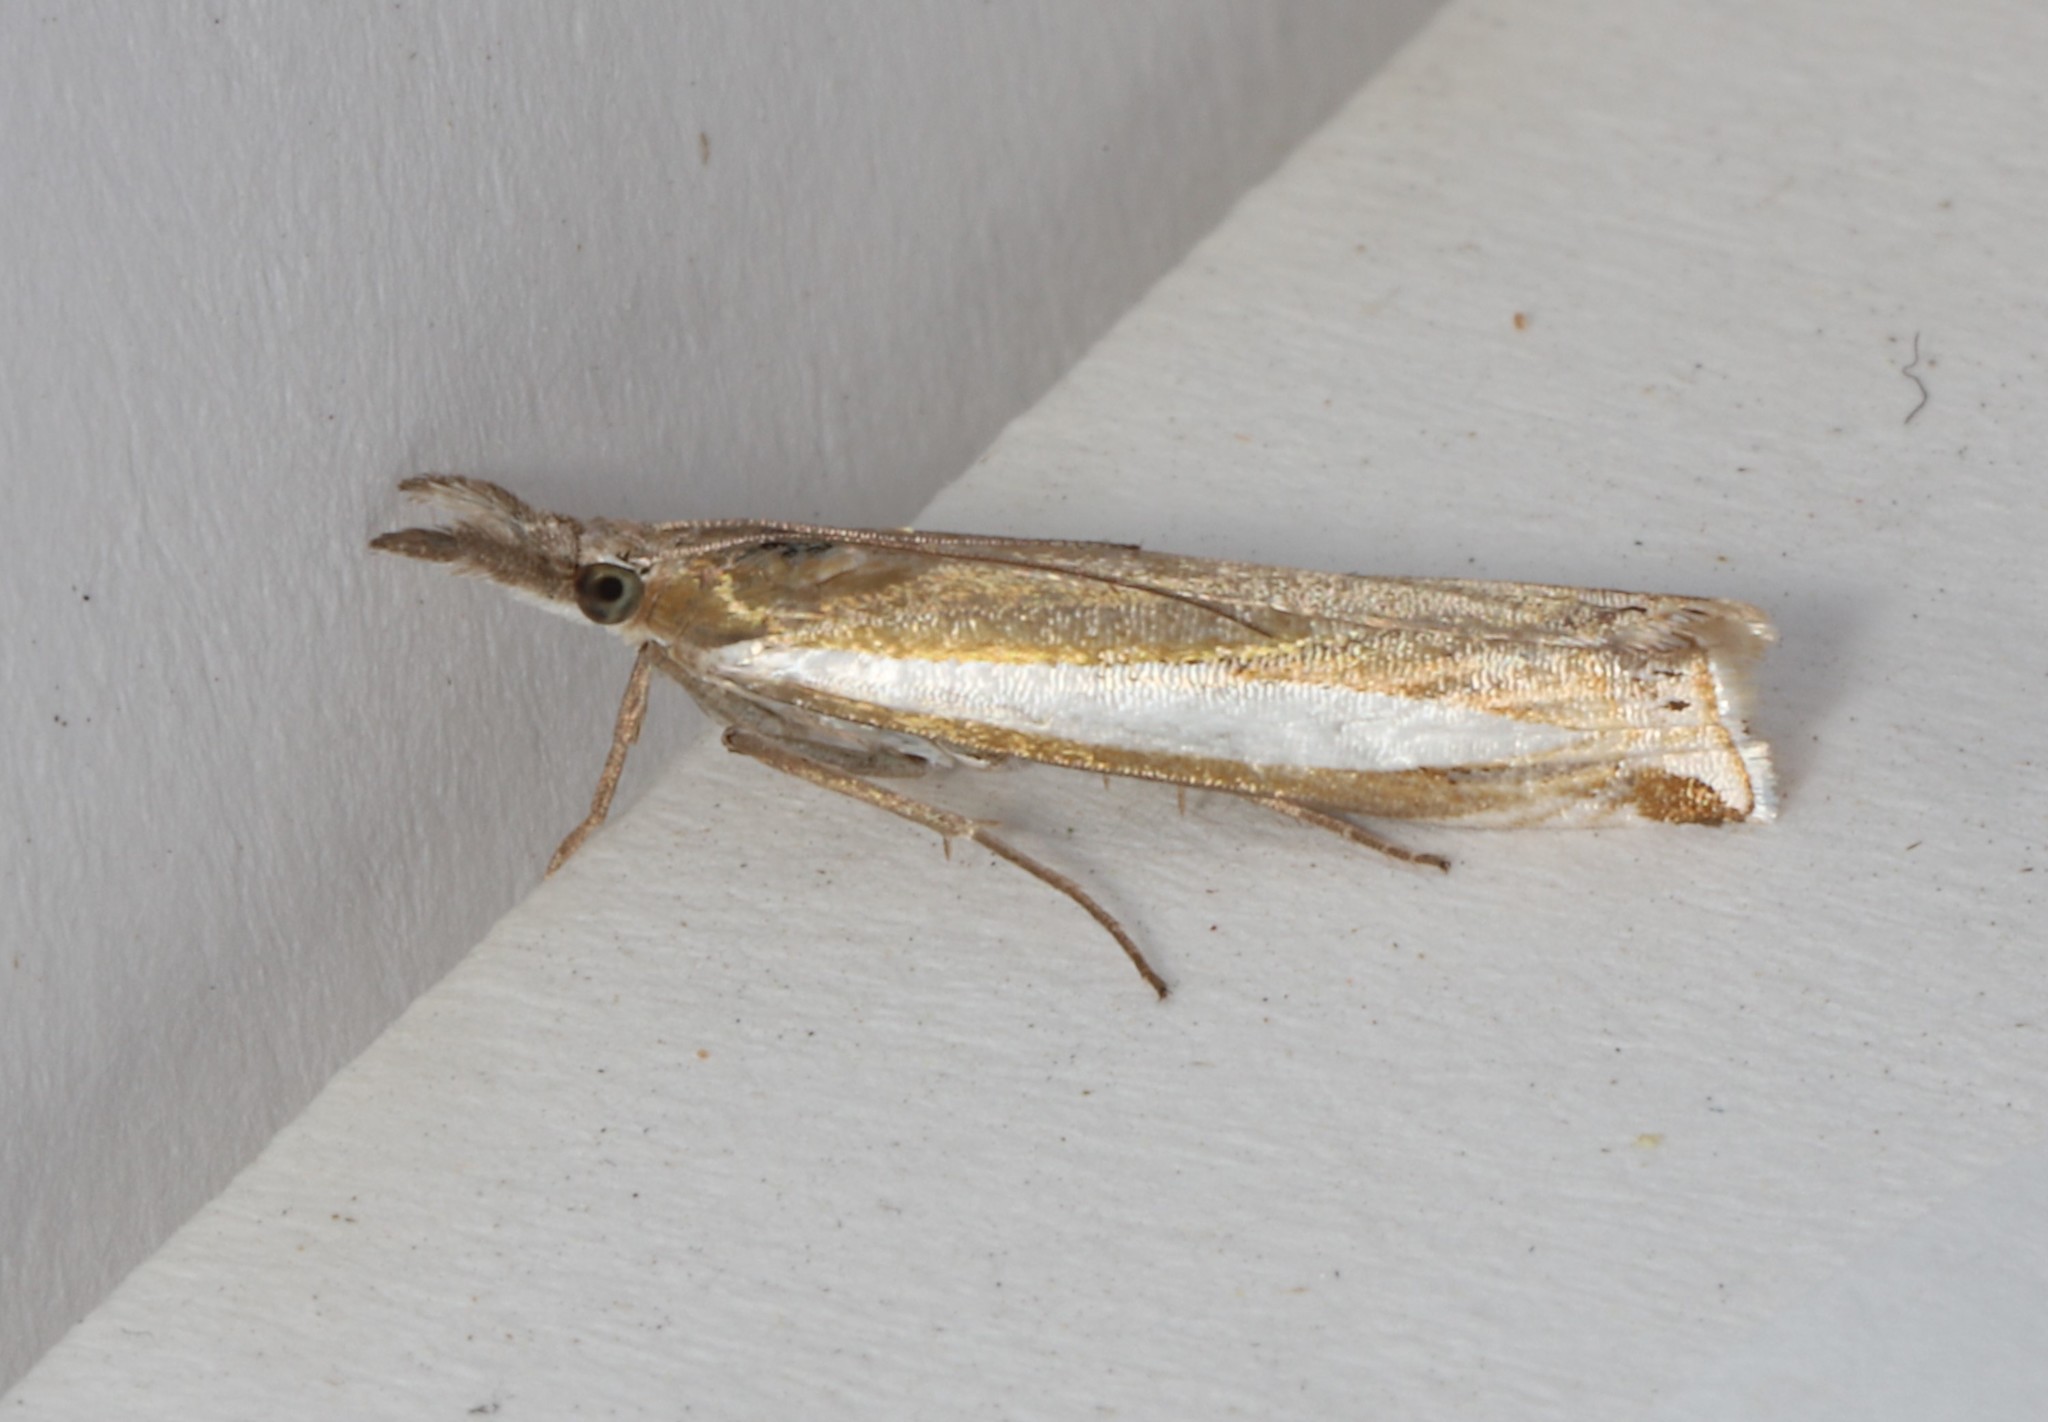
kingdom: Animalia
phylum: Arthropoda
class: Insecta
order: Lepidoptera
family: Crambidae
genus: Crambus
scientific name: Crambus praefectellus
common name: Common grass-veneer
